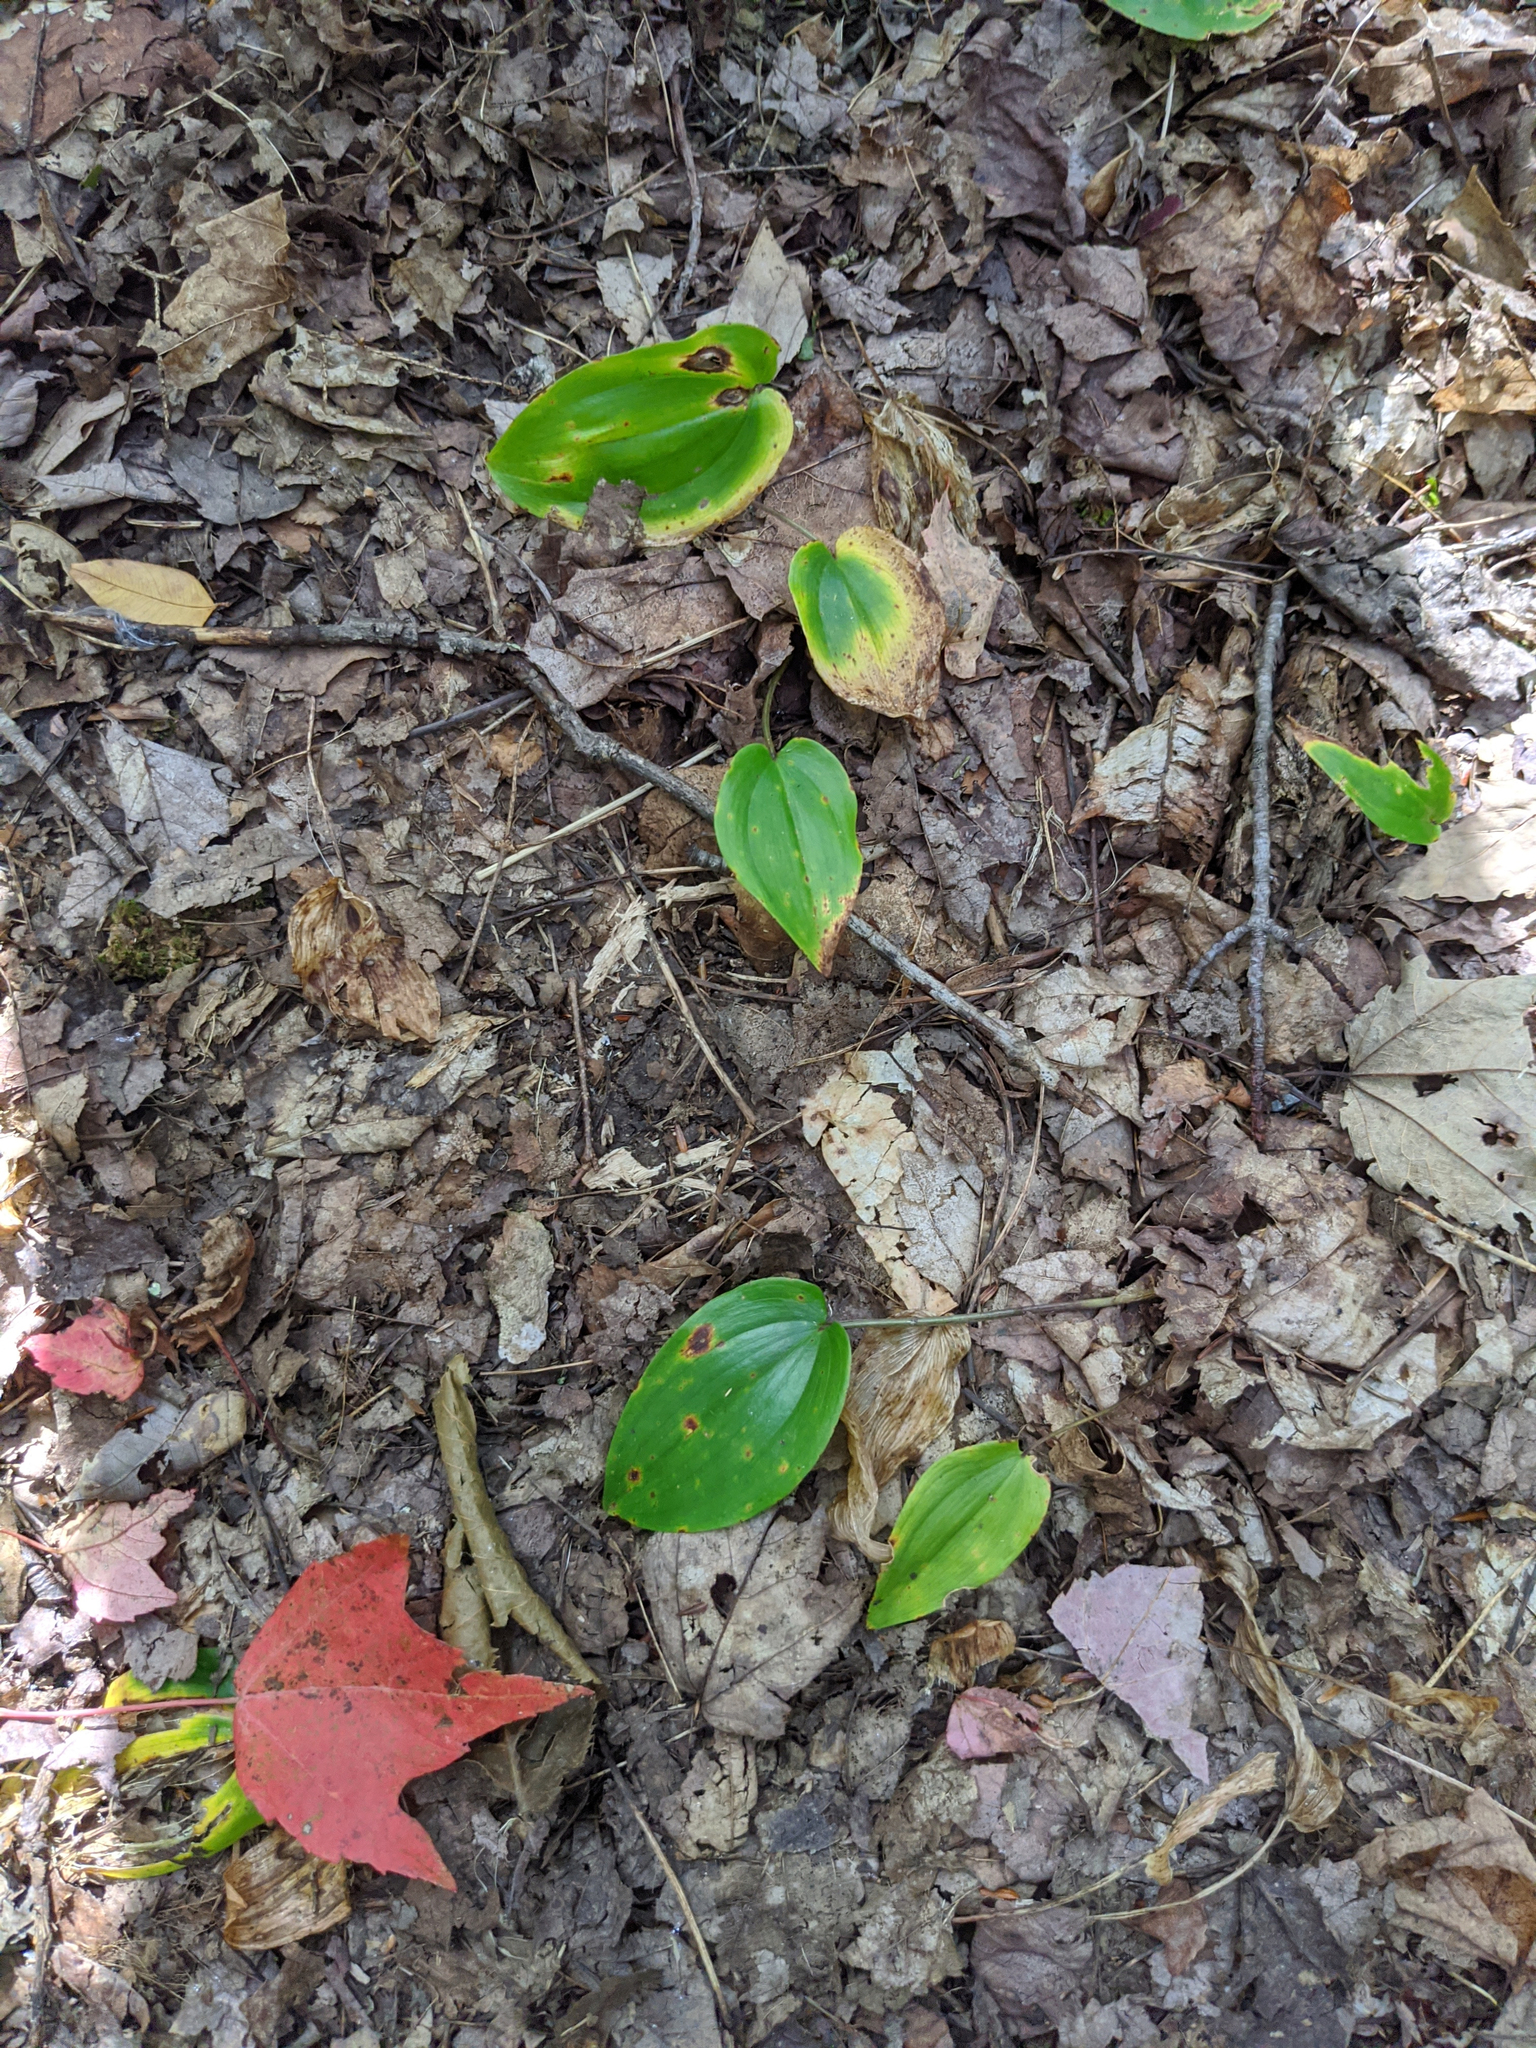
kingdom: Plantae
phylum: Tracheophyta
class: Liliopsida
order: Asparagales
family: Asparagaceae
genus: Maianthemum
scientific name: Maianthemum canadense
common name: False lily-of-the-valley
